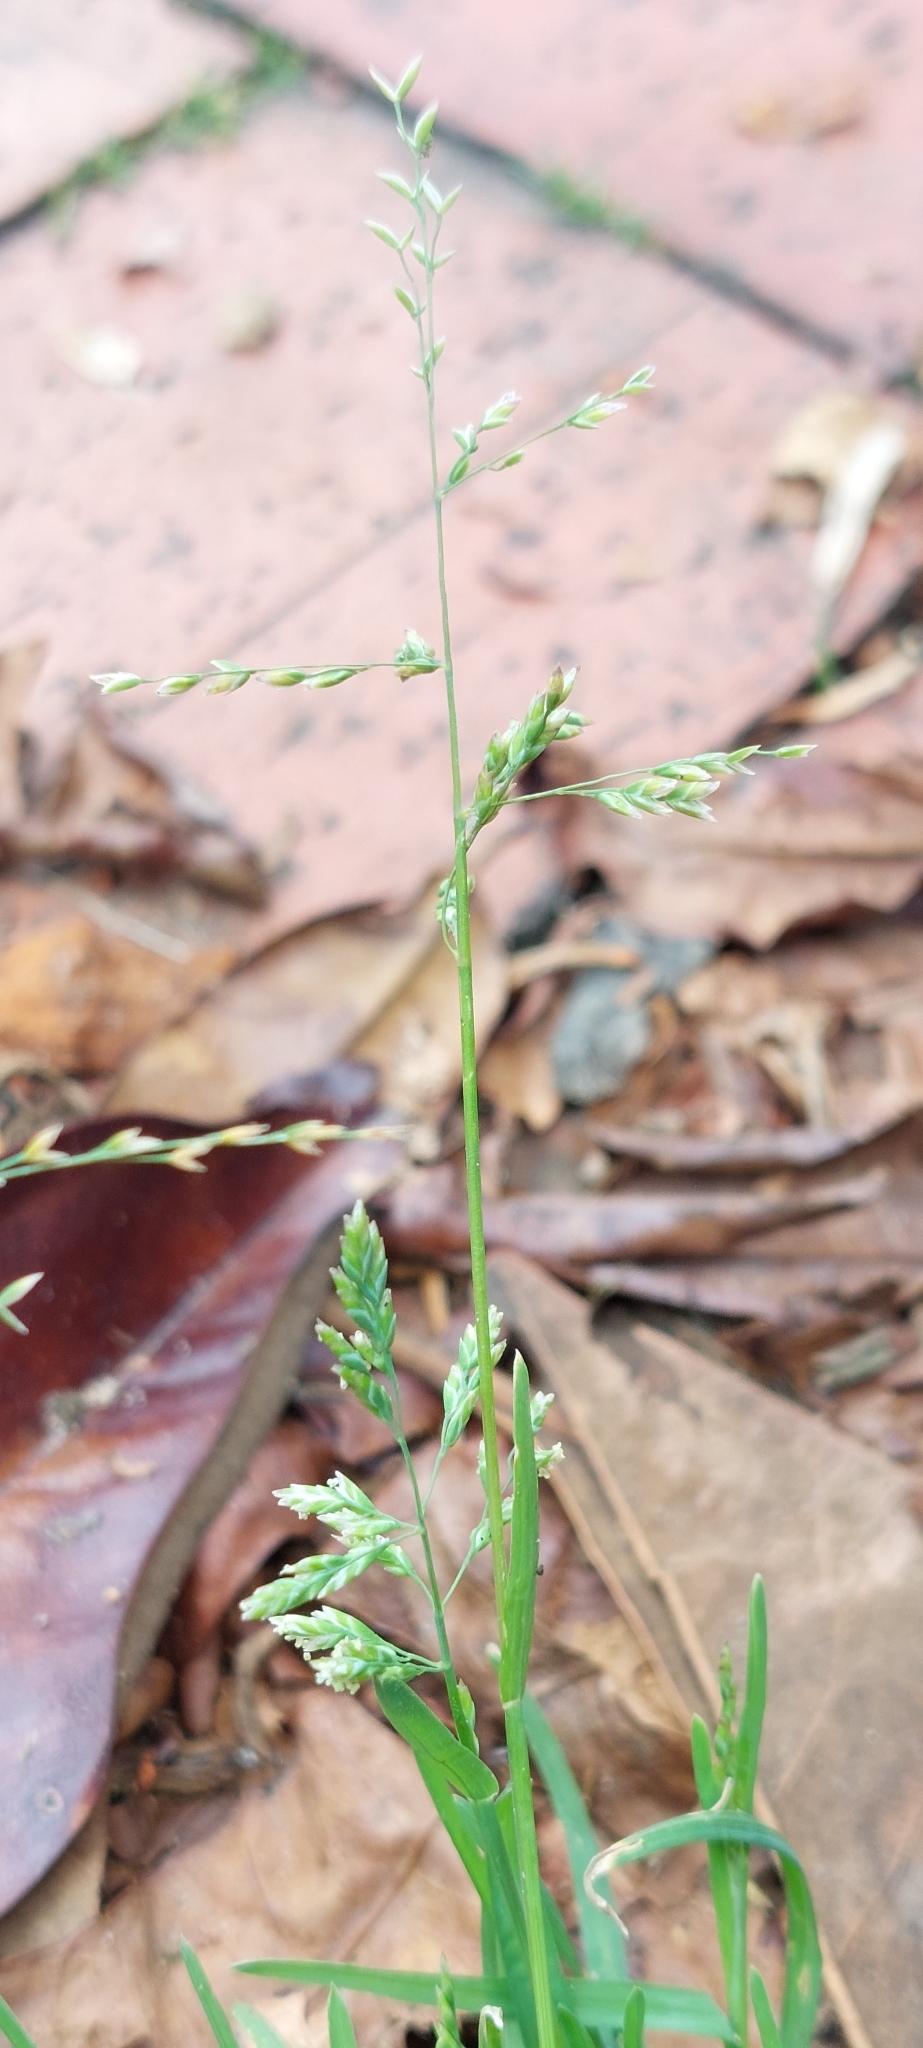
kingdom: Plantae
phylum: Tracheophyta
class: Liliopsida
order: Poales
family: Poaceae
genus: Poa
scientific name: Poa annua
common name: Annual bluegrass
